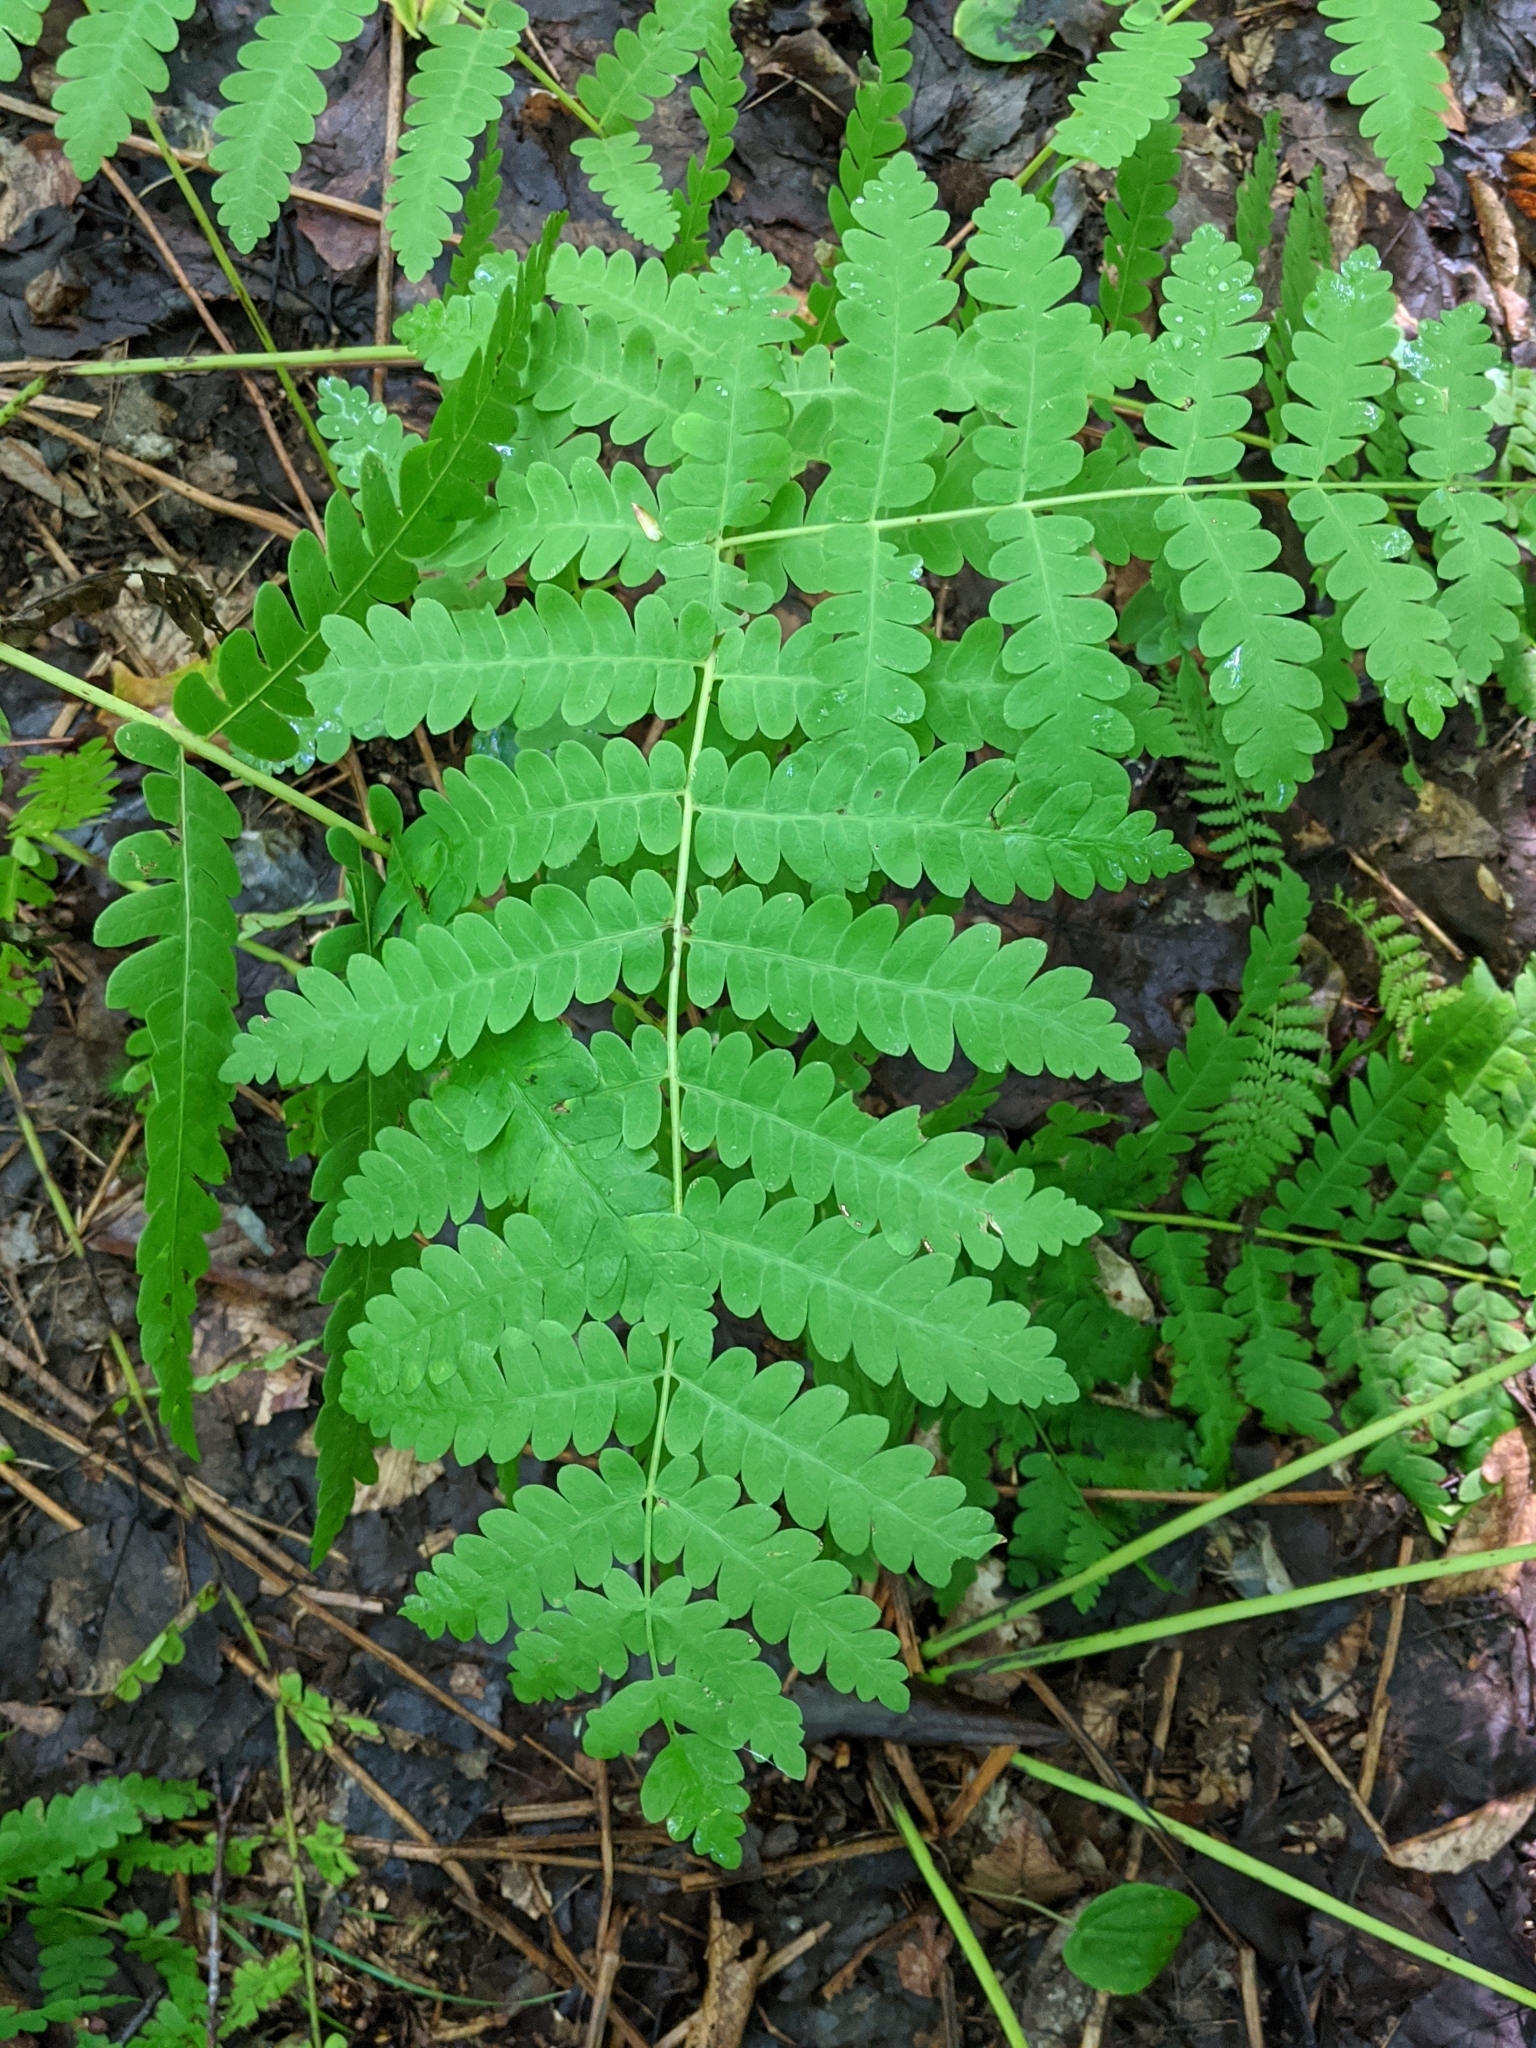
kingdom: Plantae
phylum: Tracheophyta
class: Polypodiopsida
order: Osmundales
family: Osmundaceae
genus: Claytosmunda
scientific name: Claytosmunda claytoniana
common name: Clayton's fern
